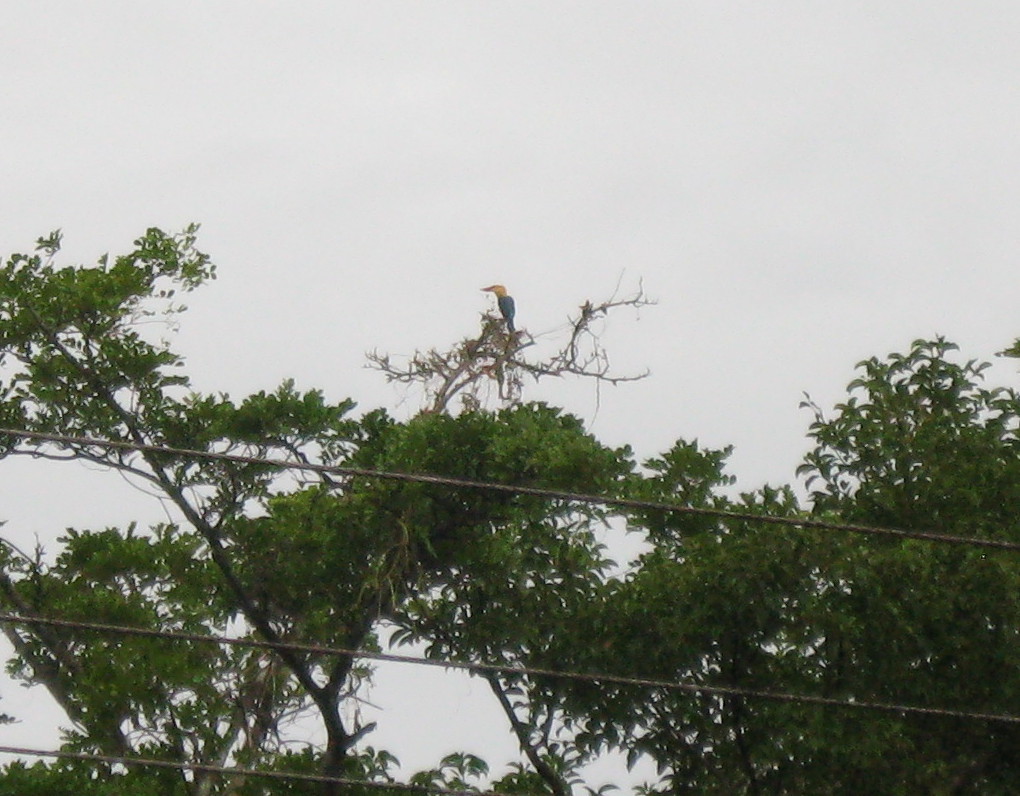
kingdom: Animalia
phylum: Chordata
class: Aves
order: Coraciiformes
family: Alcedinidae
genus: Pelargopsis
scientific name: Pelargopsis capensis
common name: Stork-billed kingfisher
